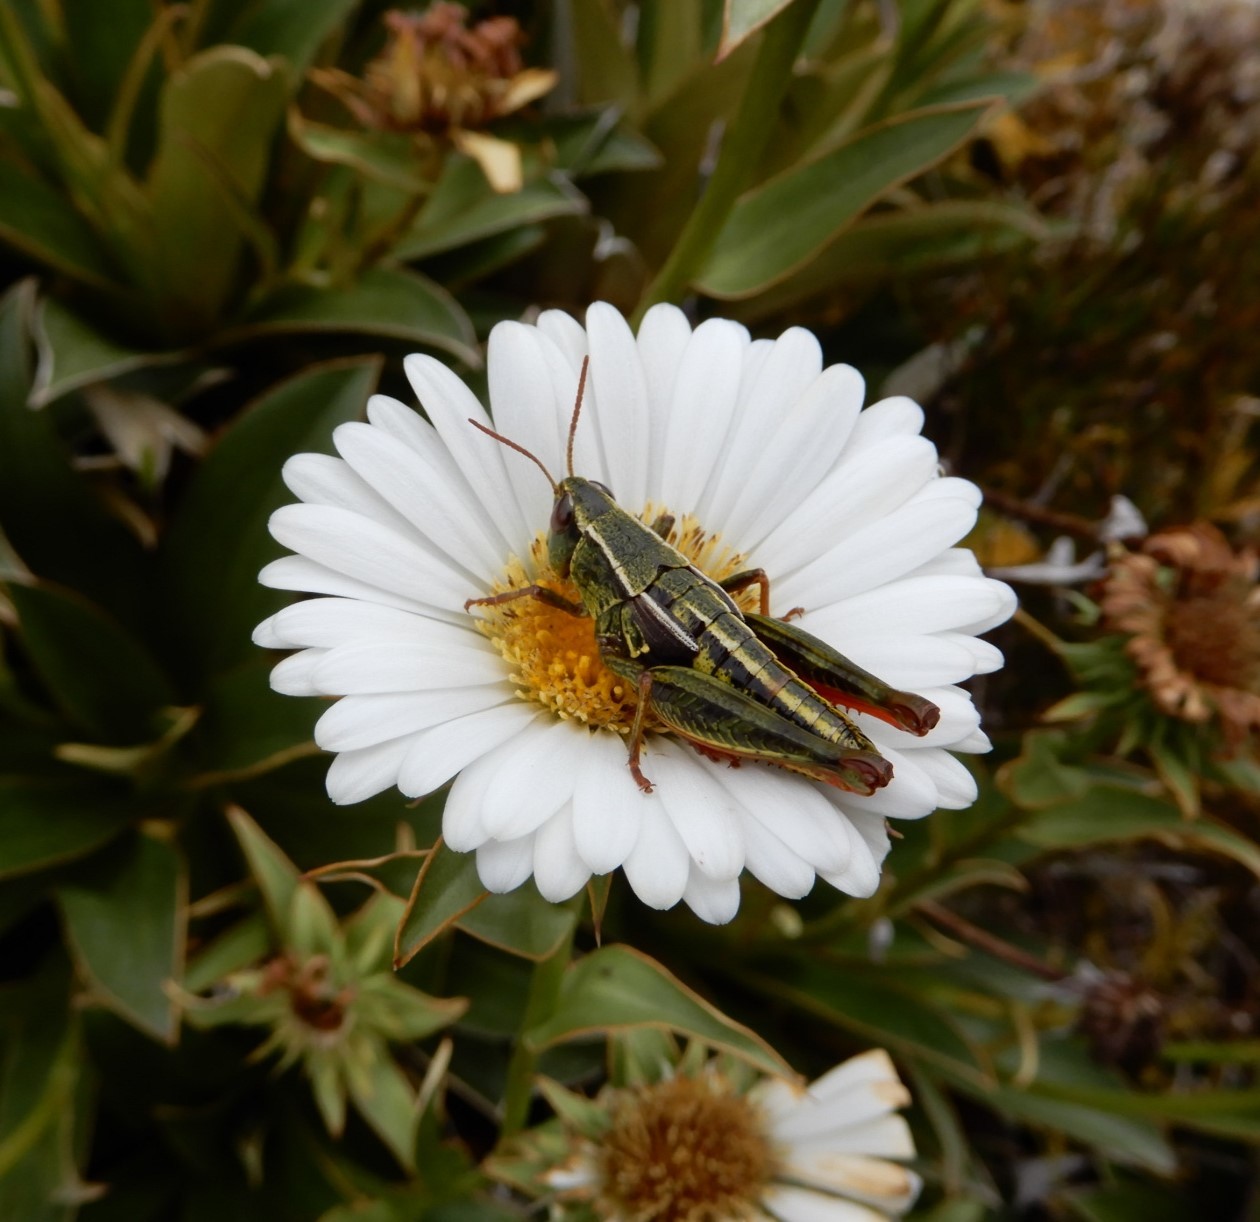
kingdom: Animalia
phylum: Arthropoda
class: Insecta
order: Orthoptera
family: Acrididae
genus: Sigaus
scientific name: Sigaus
